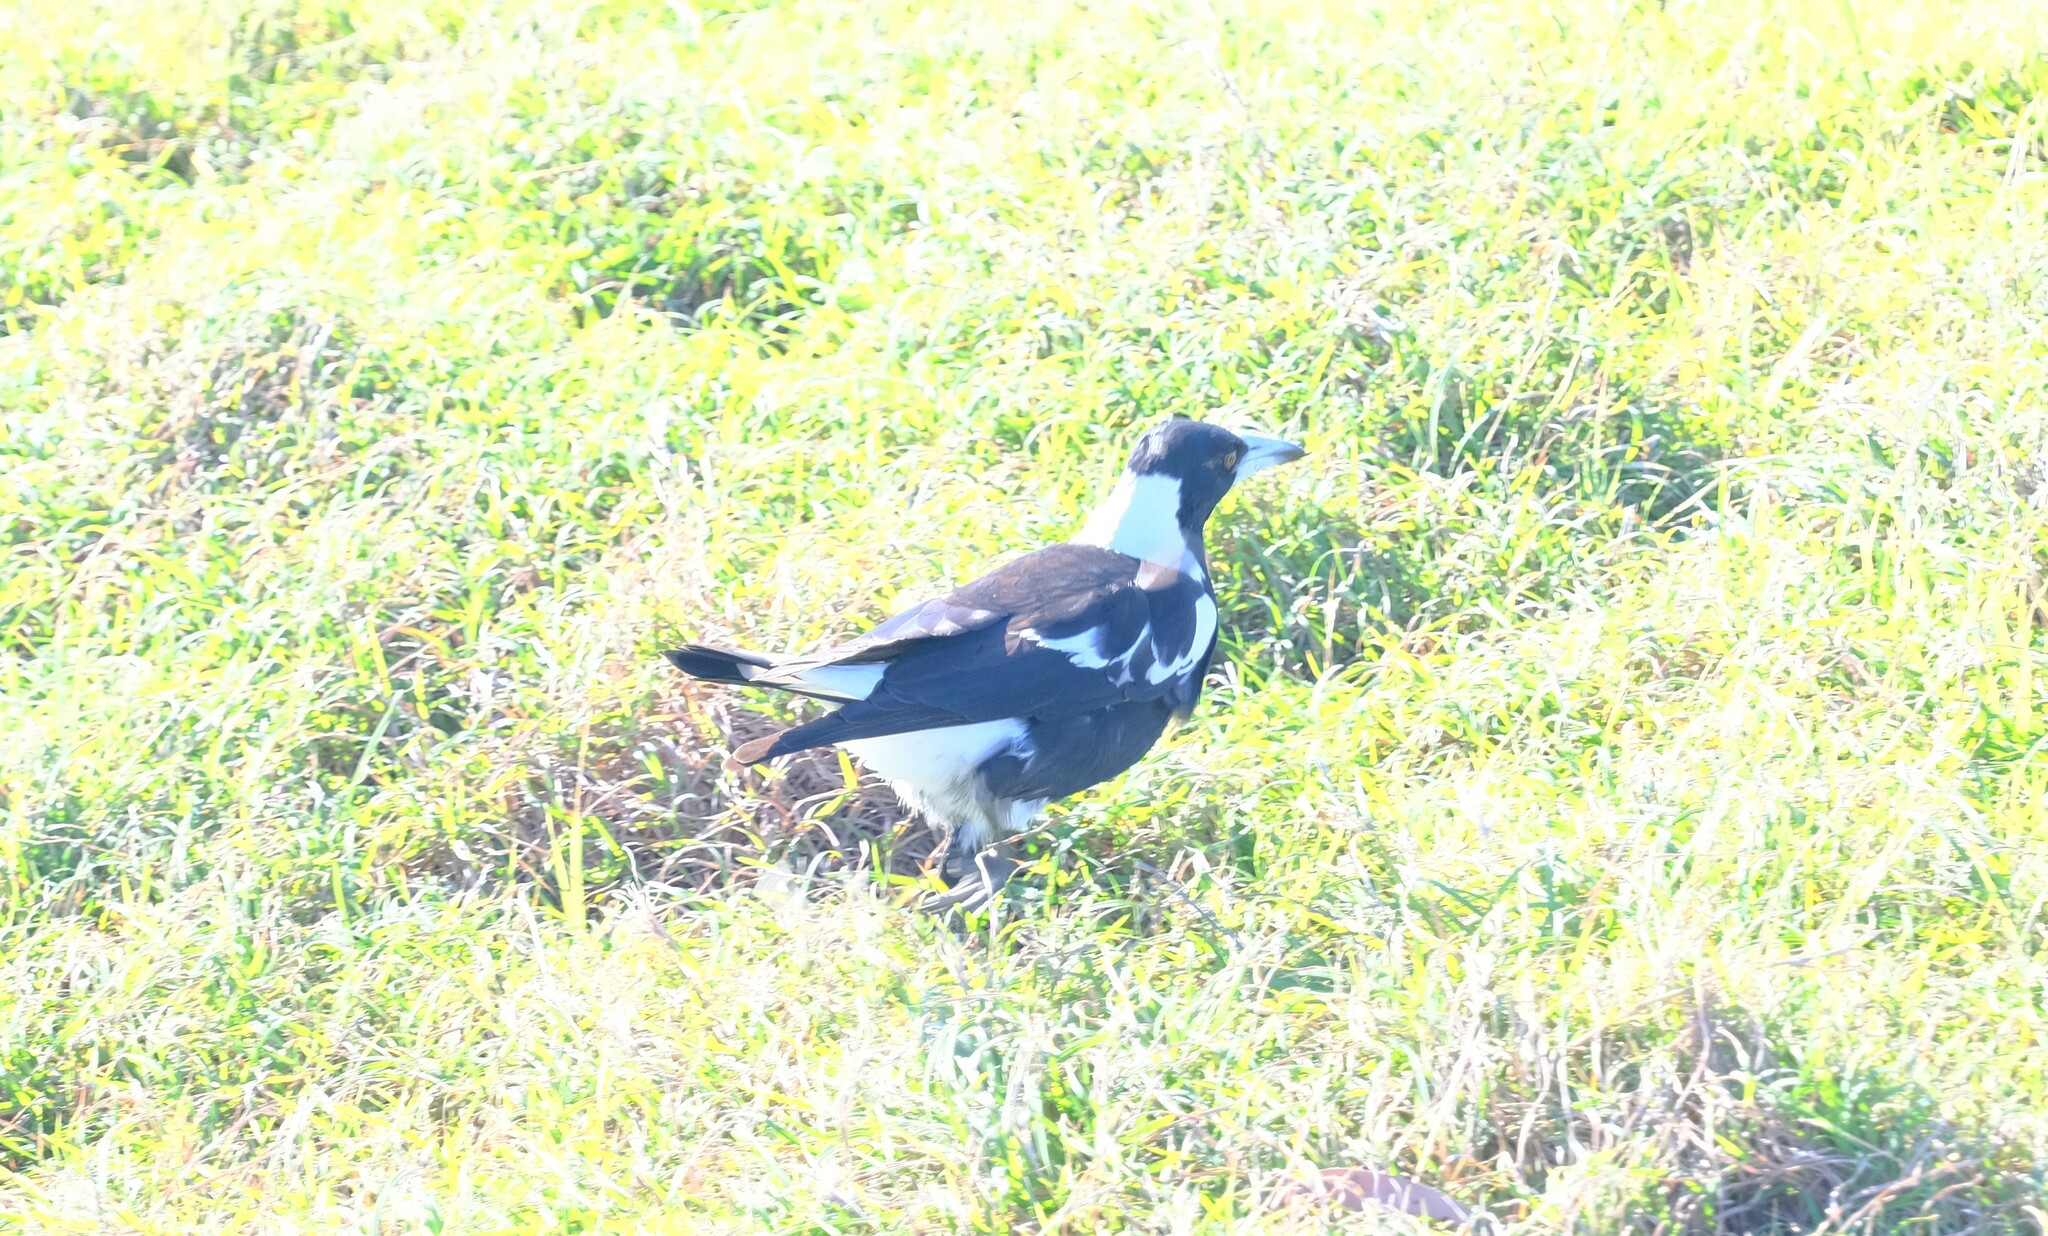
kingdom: Animalia
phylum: Chordata
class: Aves
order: Passeriformes
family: Cracticidae
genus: Gymnorhina
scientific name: Gymnorhina tibicen
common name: Australian magpie
